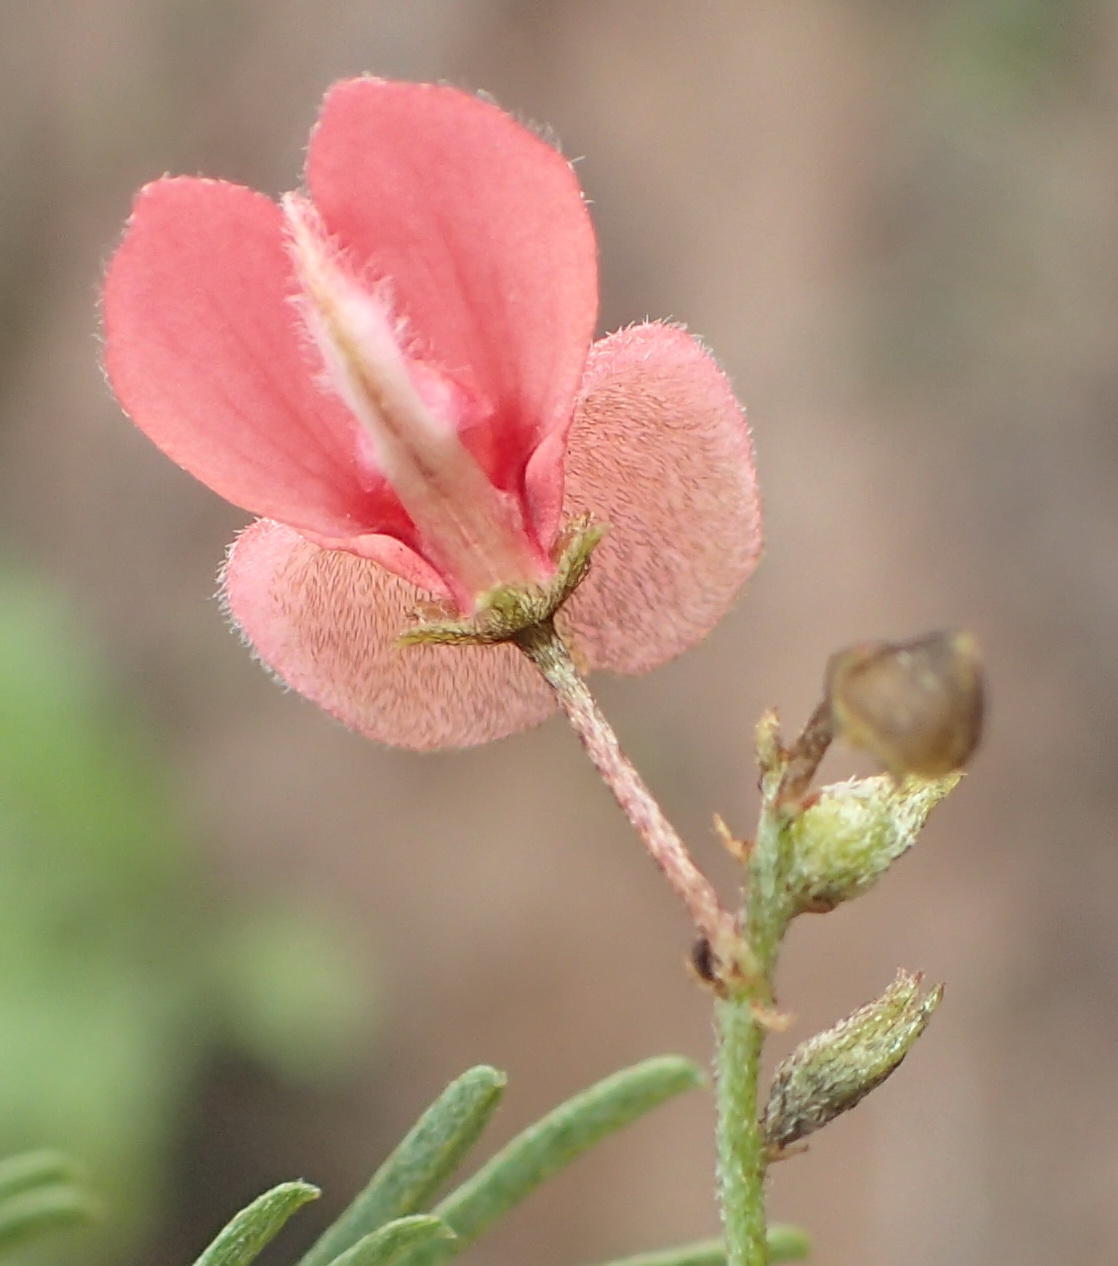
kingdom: Plantae
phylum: Tracheophyta
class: Magnoliopsida
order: Fabales
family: Fabaceae
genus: Indigofera
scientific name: Indigofera verrucosa
